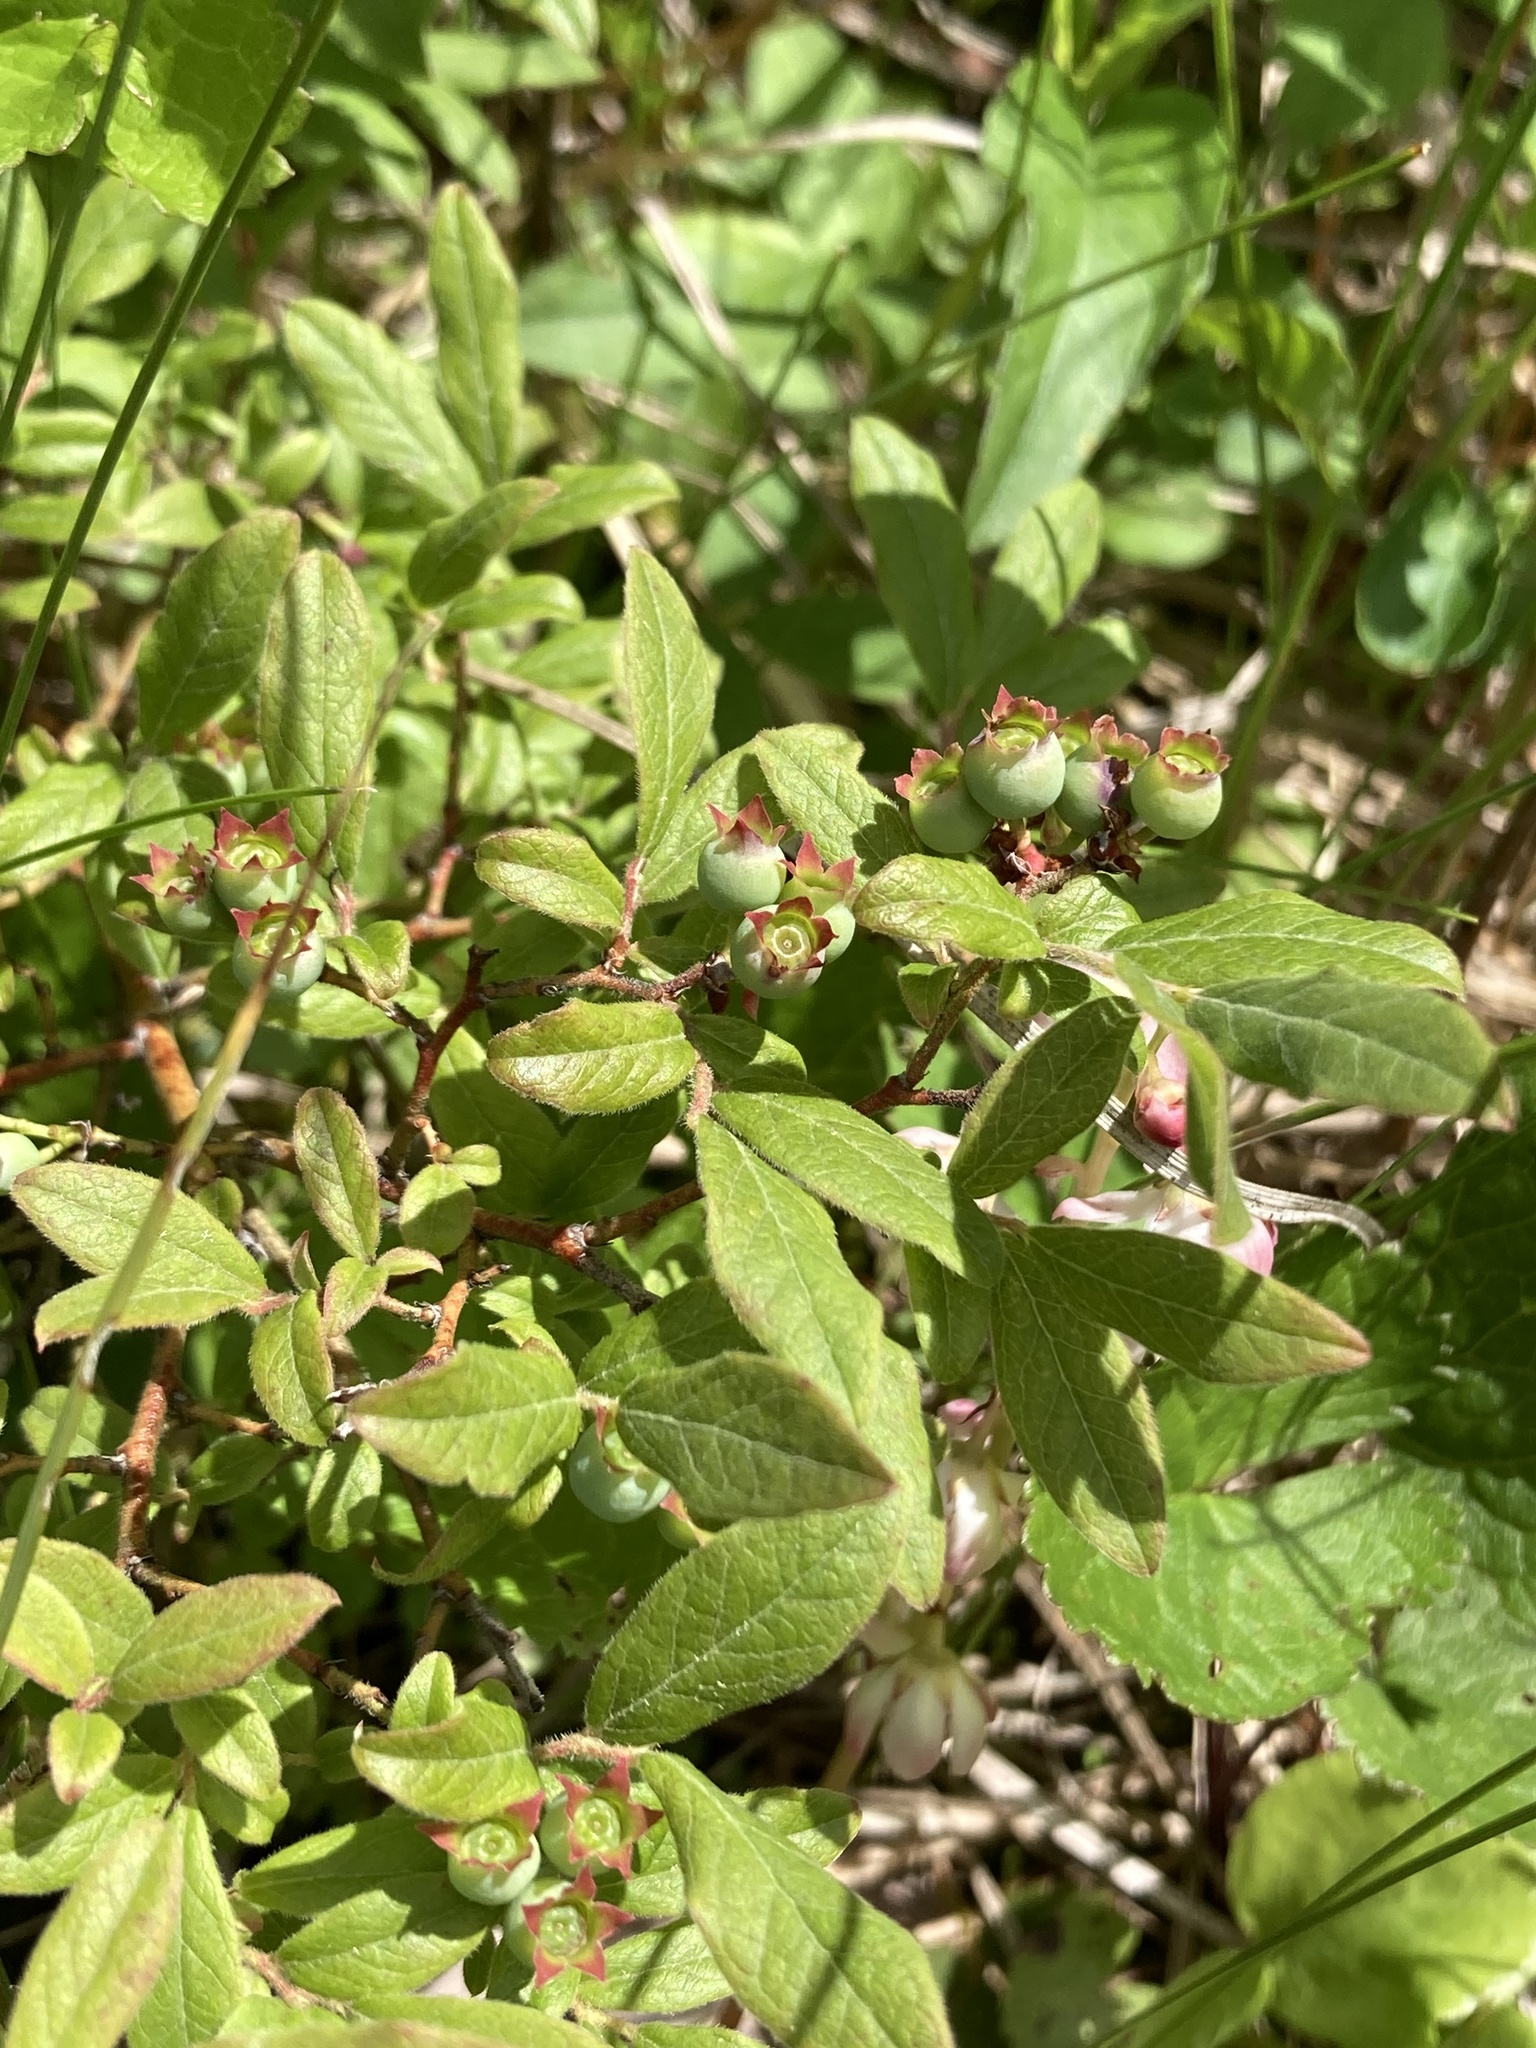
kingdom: Plantae
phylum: Tracheophyta
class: Magnoliopsida
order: Ericales
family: Ericaceae
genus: Vaccinium
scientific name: Vaccinium myrtilloides
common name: Canada blueberry
